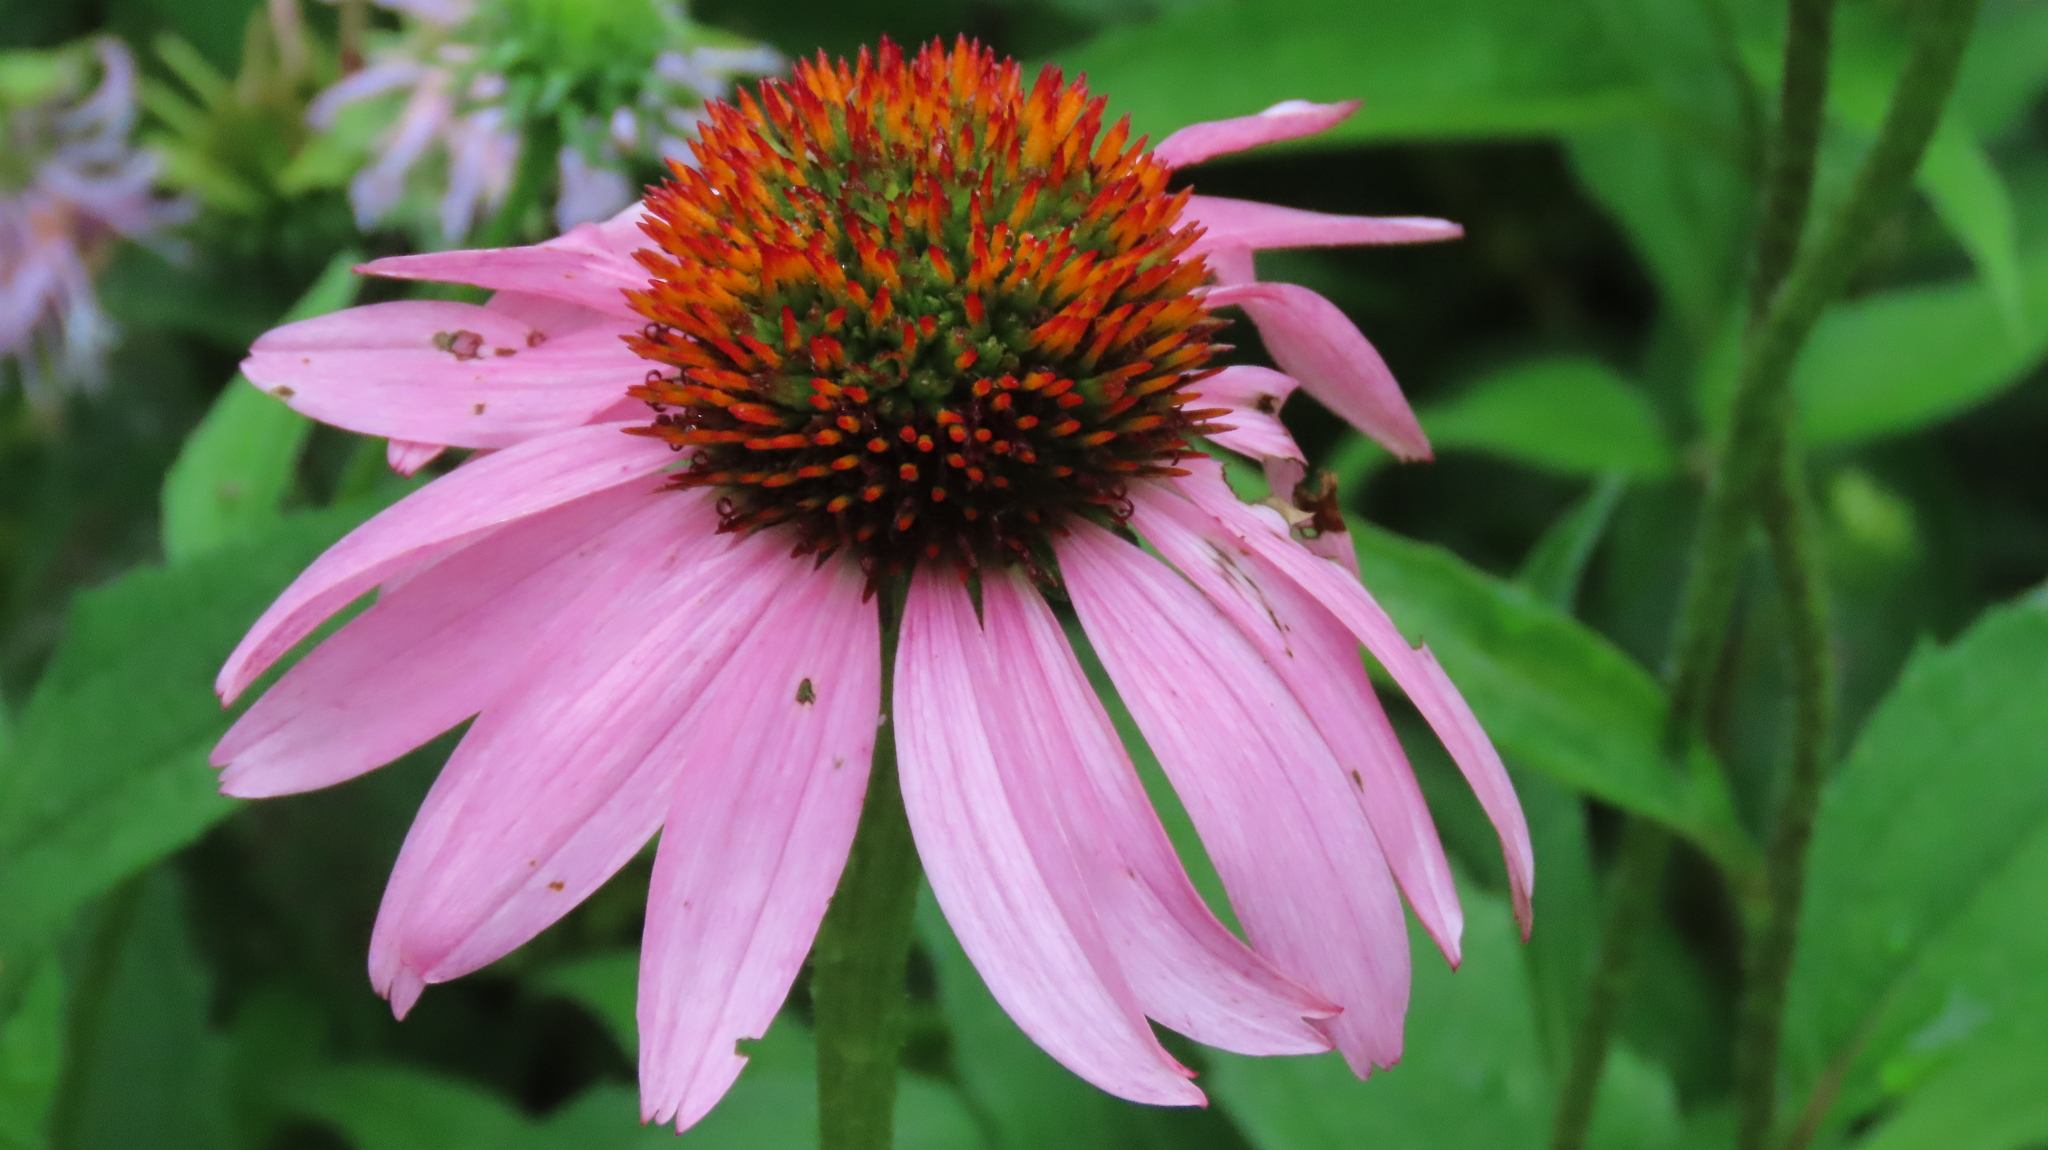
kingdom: Plantae
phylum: Tracheophyta
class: Magnoliopsida
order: Asterales
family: Asteraceae
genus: Echinacea
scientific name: Echinacea purpurea
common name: Broad-leaved purple coneflower
